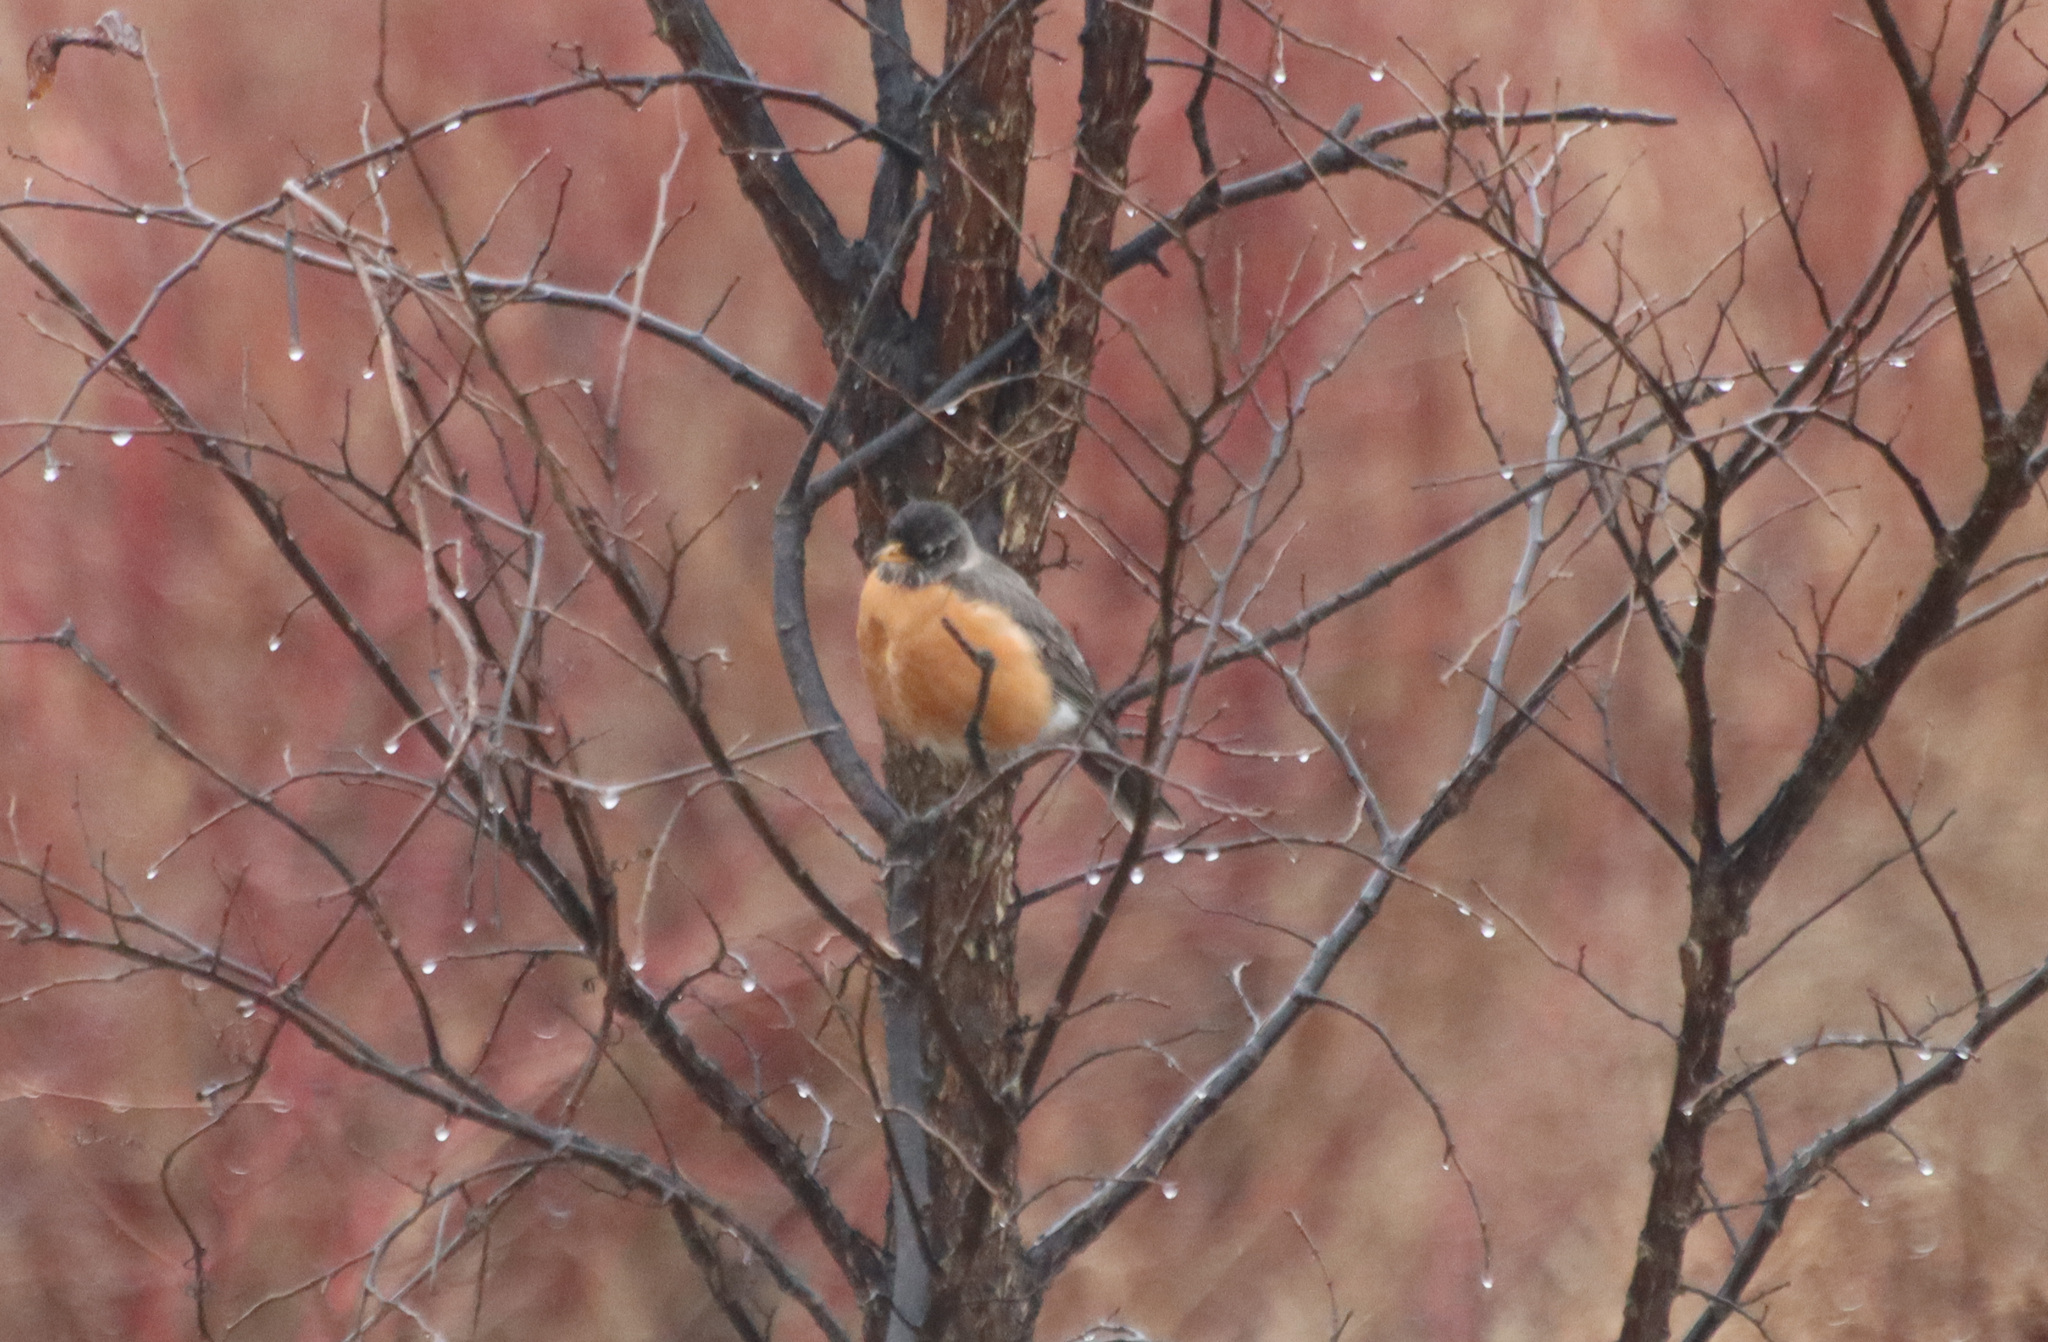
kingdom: Animalia
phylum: Chordata
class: Aves
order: Passeriformes
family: Turdidae
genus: Turdus
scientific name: Turdus migratorius
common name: American robin
